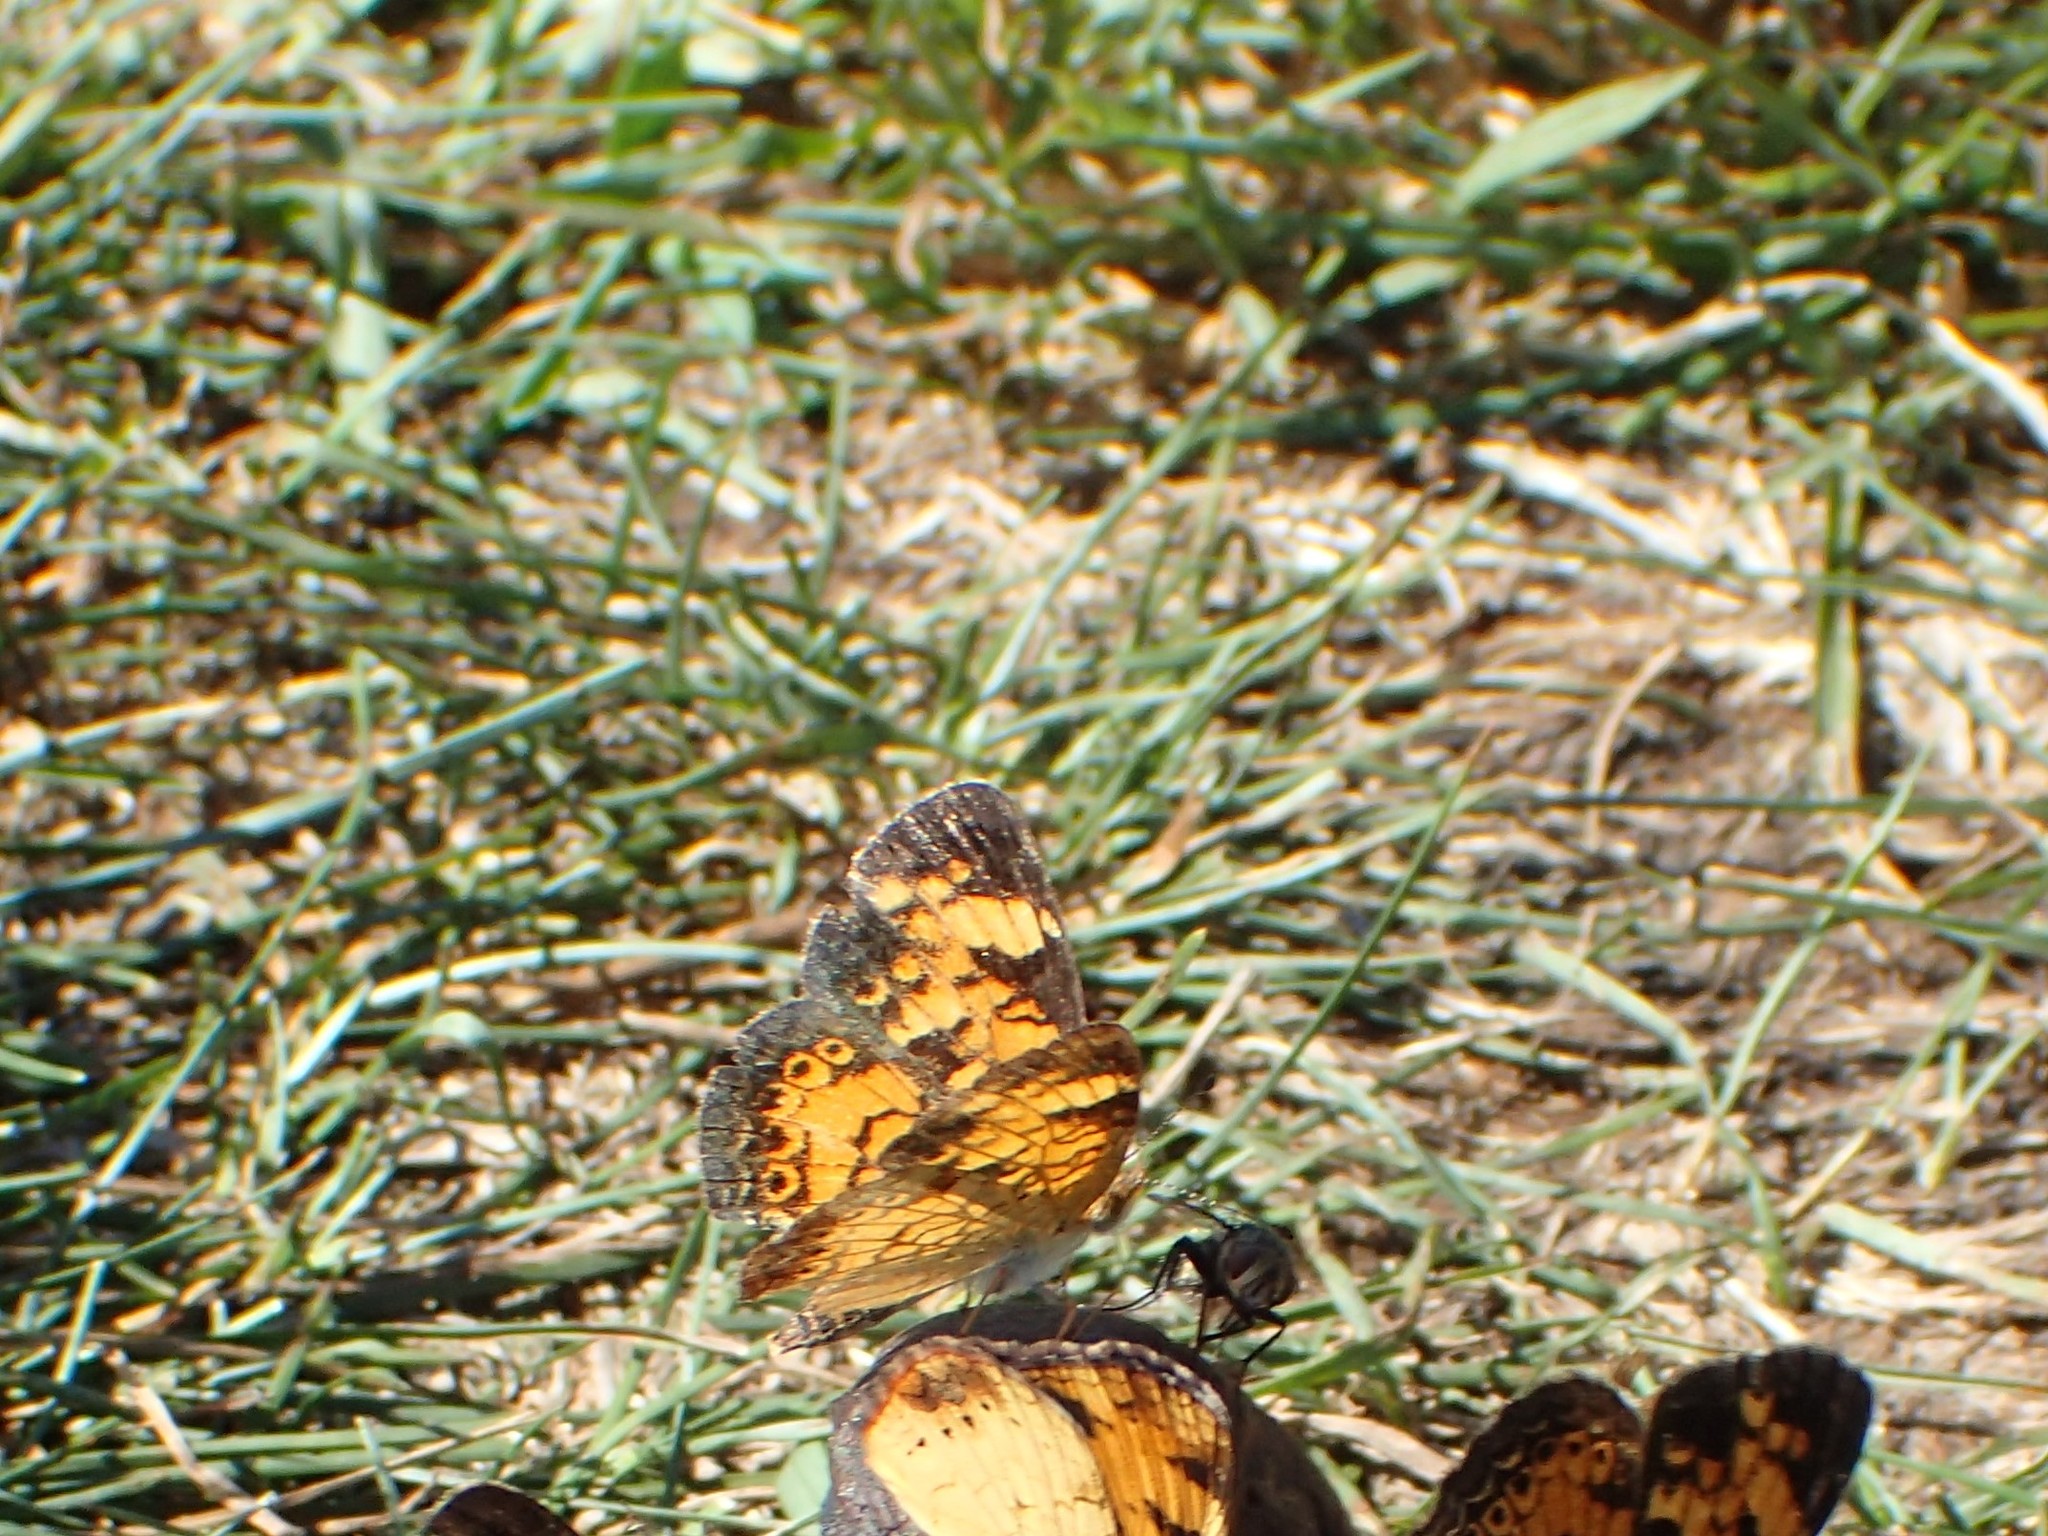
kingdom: Animalia
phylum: Arthropoda
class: Insecta
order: Lepidoptera
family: Nymphalidae
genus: Phyciodes
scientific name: Phyciodes tharos
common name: Pearl crescent
